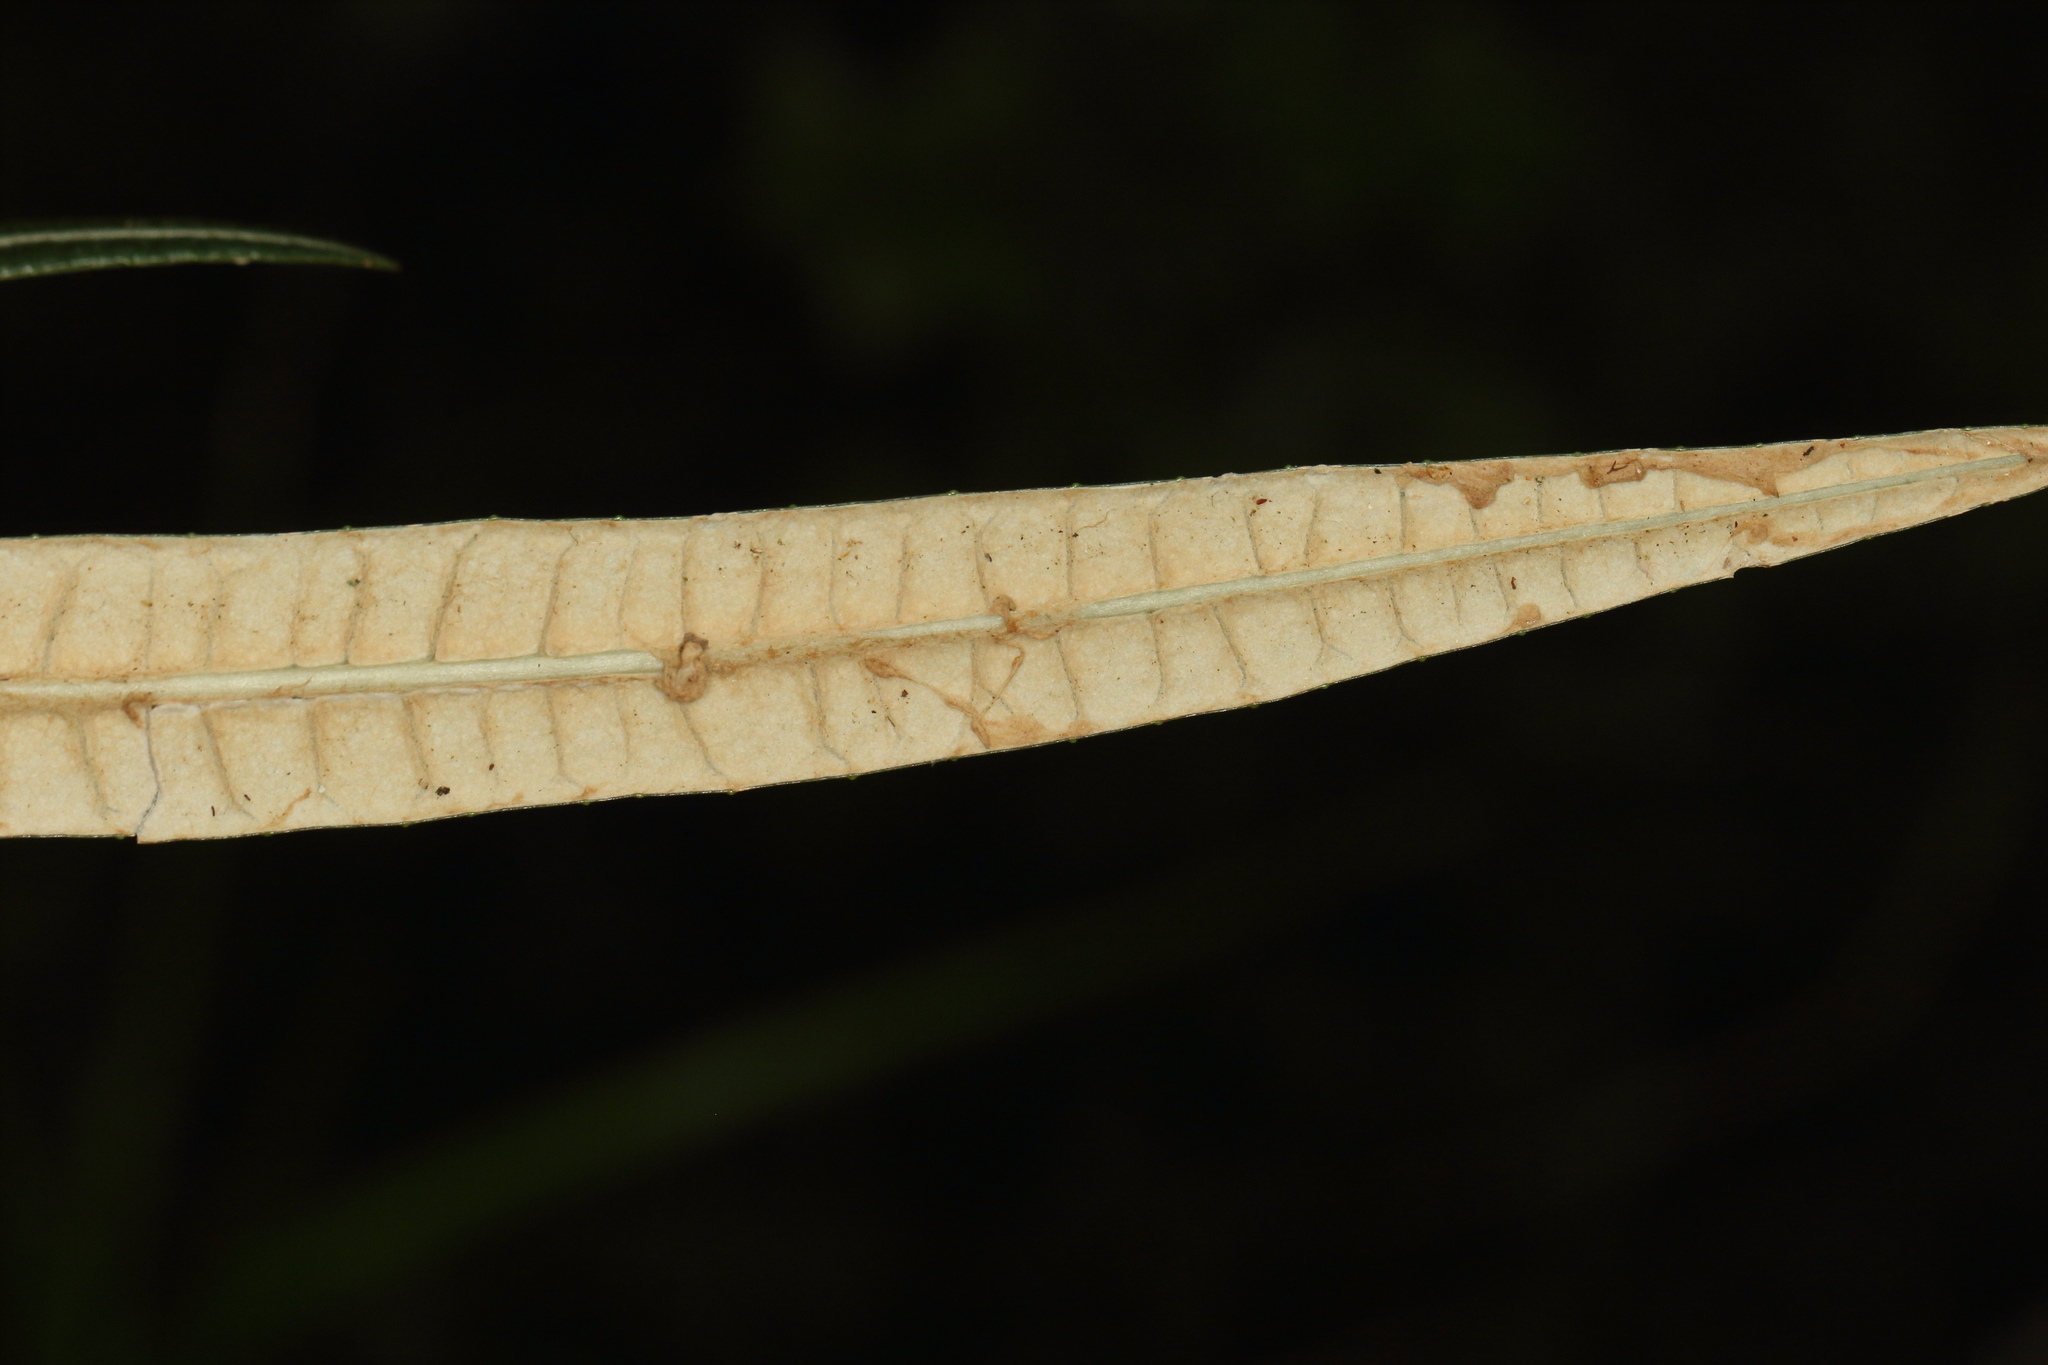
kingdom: Plantae
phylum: Tracheophyta
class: Magnoliopsida
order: Asterales
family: Asteraceae
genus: Olearia
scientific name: Olearia lacunosa
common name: Lancewood tree daisy
